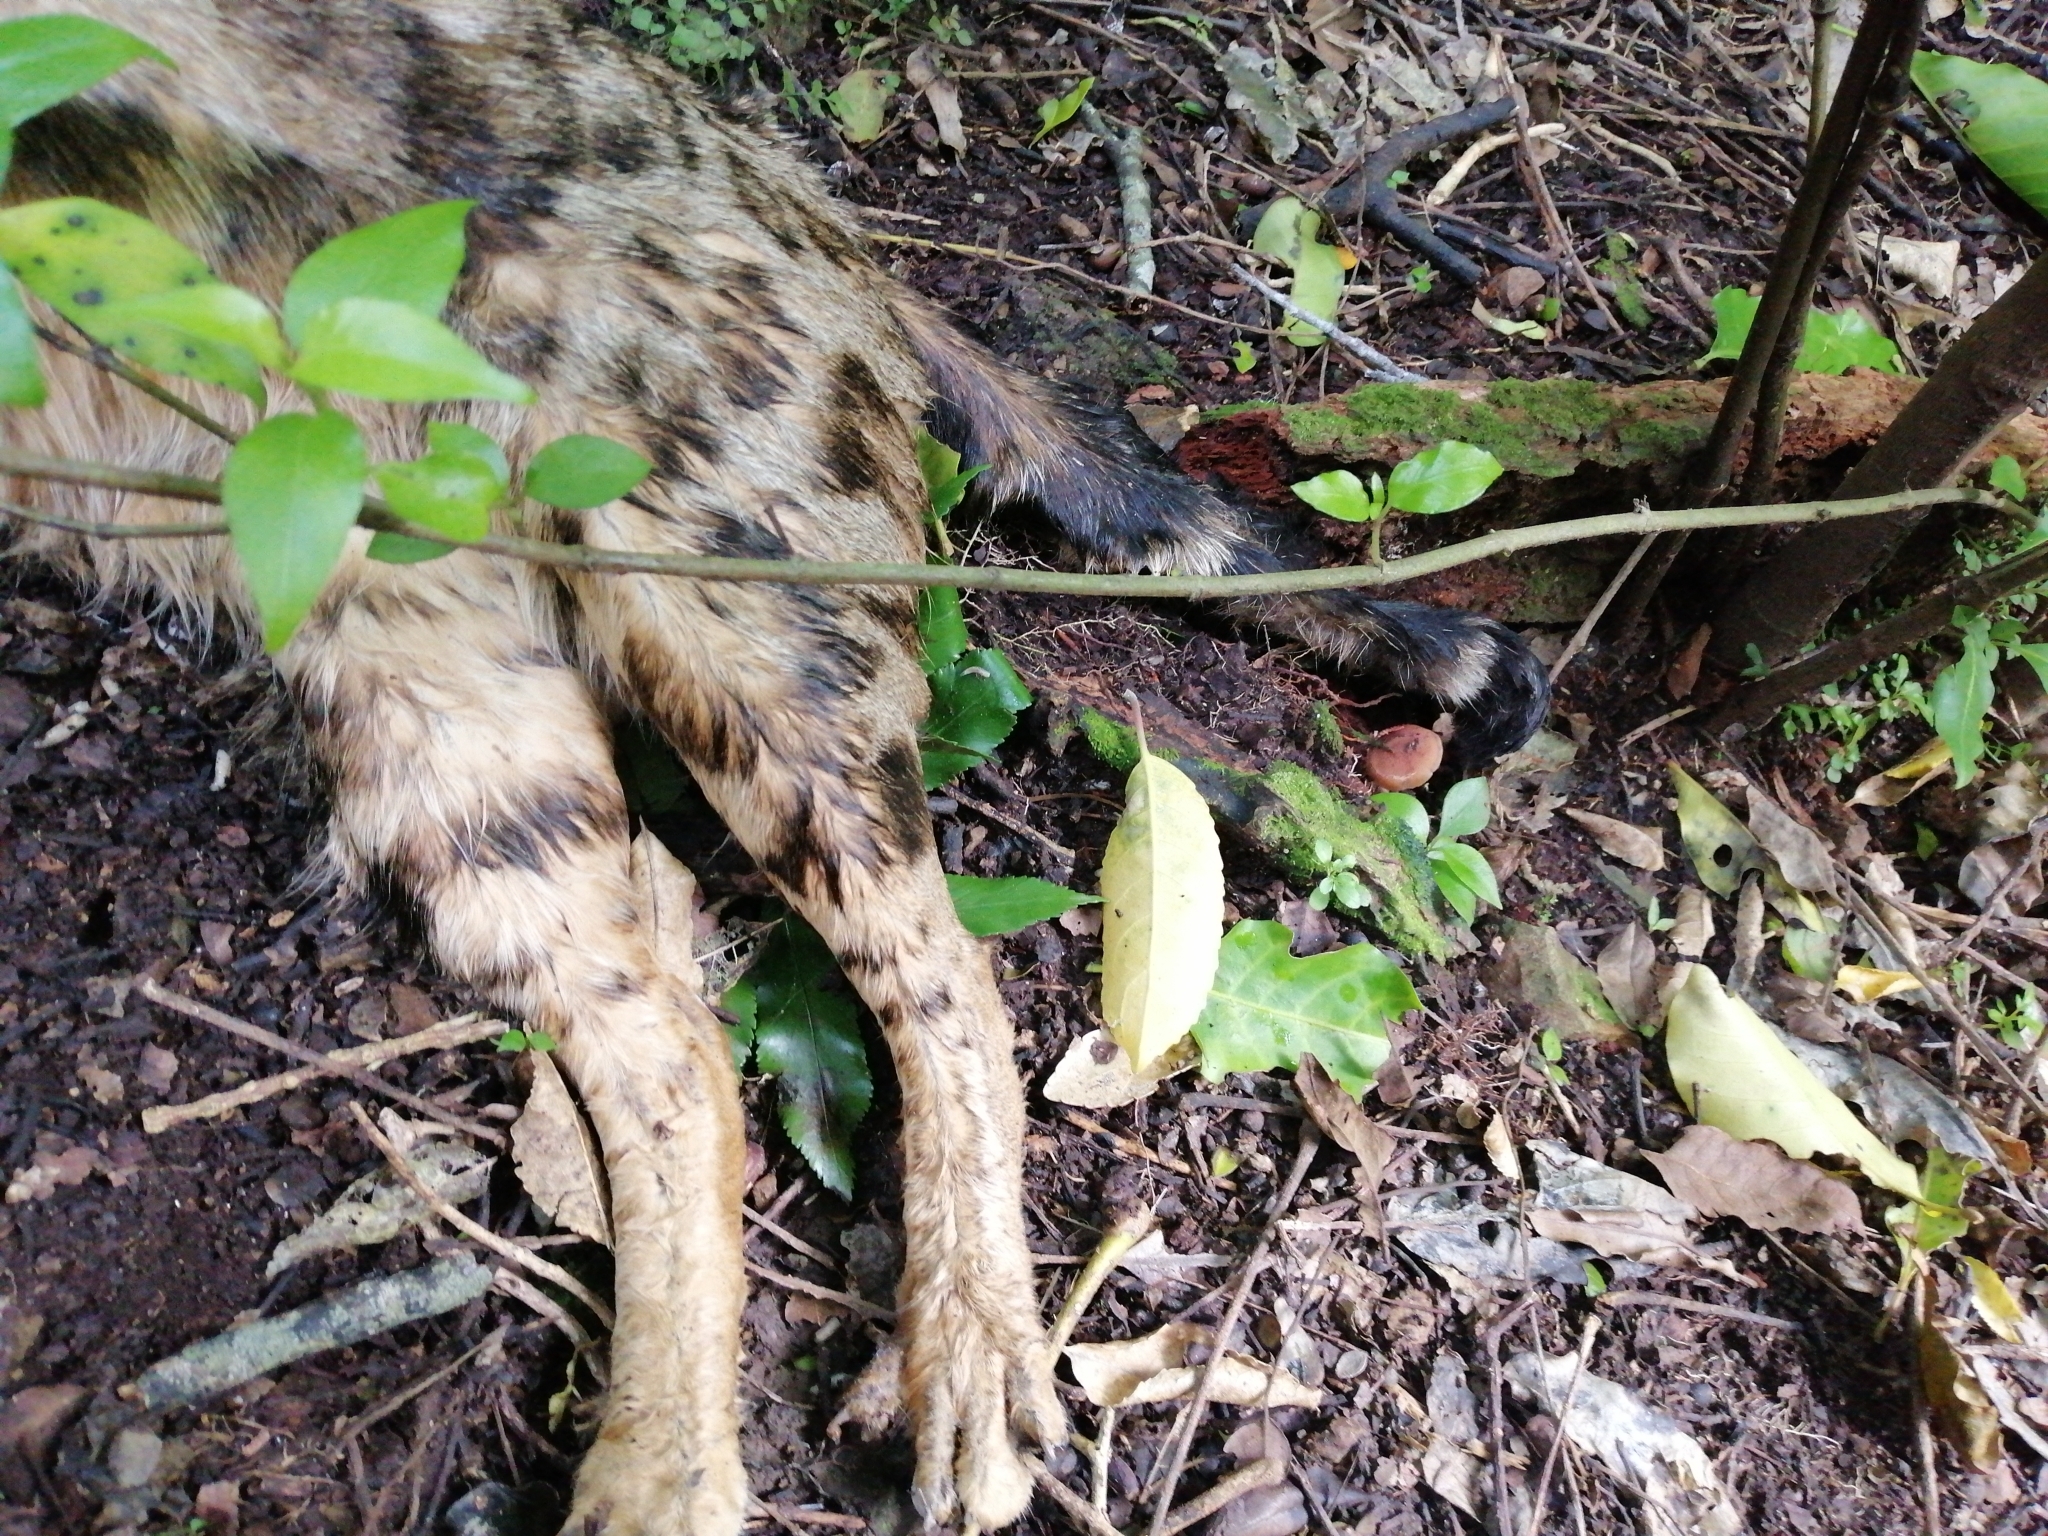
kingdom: Animalia
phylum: Chordata
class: Mammalia
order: Carnivora
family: Felidae
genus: Felis
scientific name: Felis catus
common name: Domestic cat
